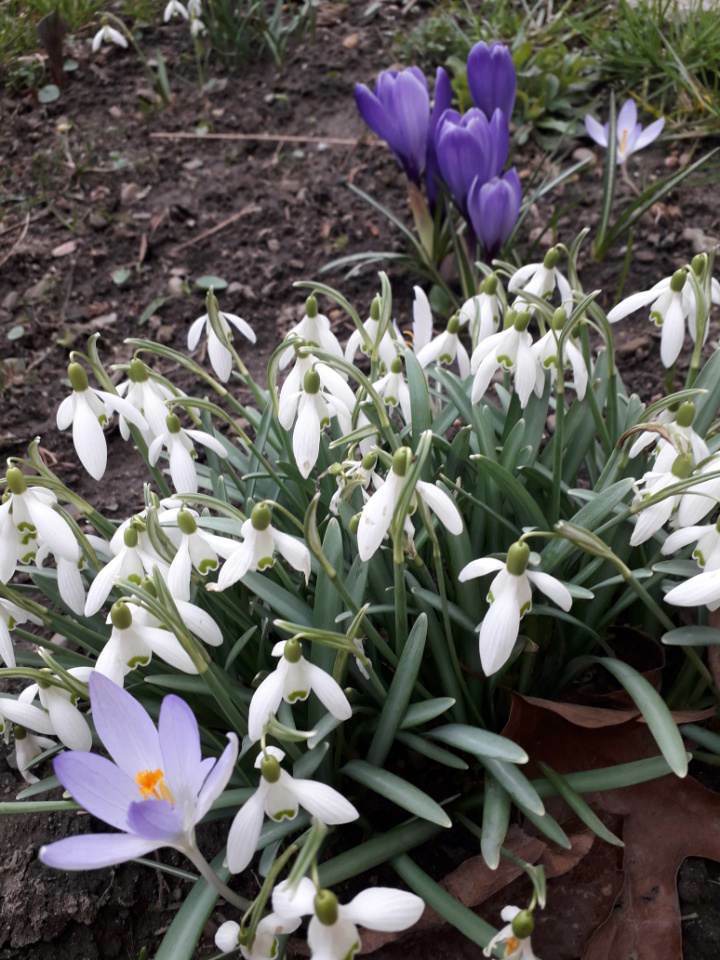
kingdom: Plantae
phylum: Tracheophyta
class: Liliopsida
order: Asparagales
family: Amaryllidaceae
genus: Galanthus
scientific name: Galanthus nivalis
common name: Snowdrop
